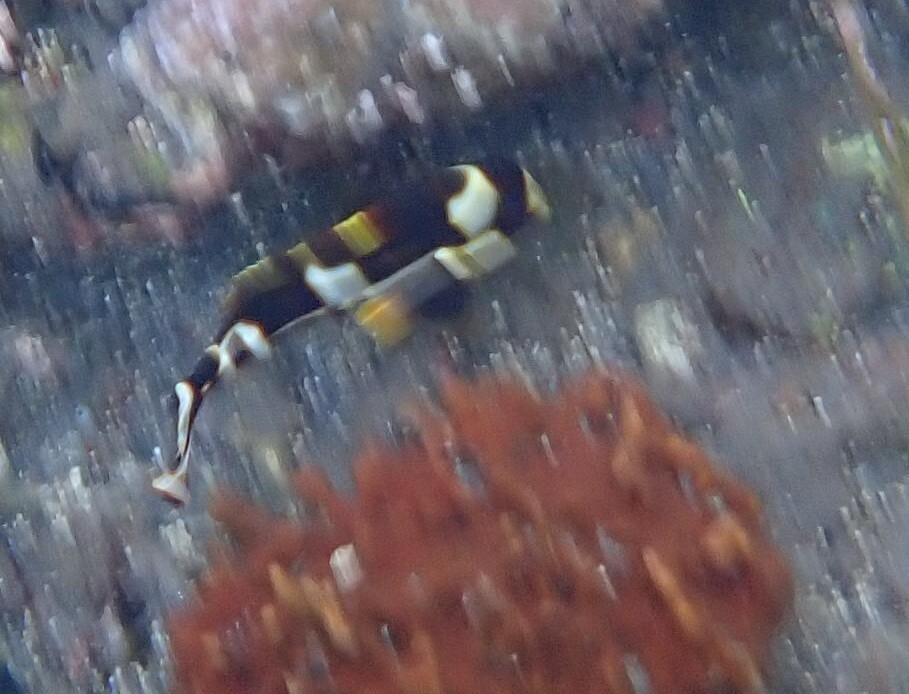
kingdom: Animalia
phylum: Chordata
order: Perciformes
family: Haemulidae
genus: Plectorhinchus
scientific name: Plectorhinchus vittatus
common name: Oriental sweetlips
